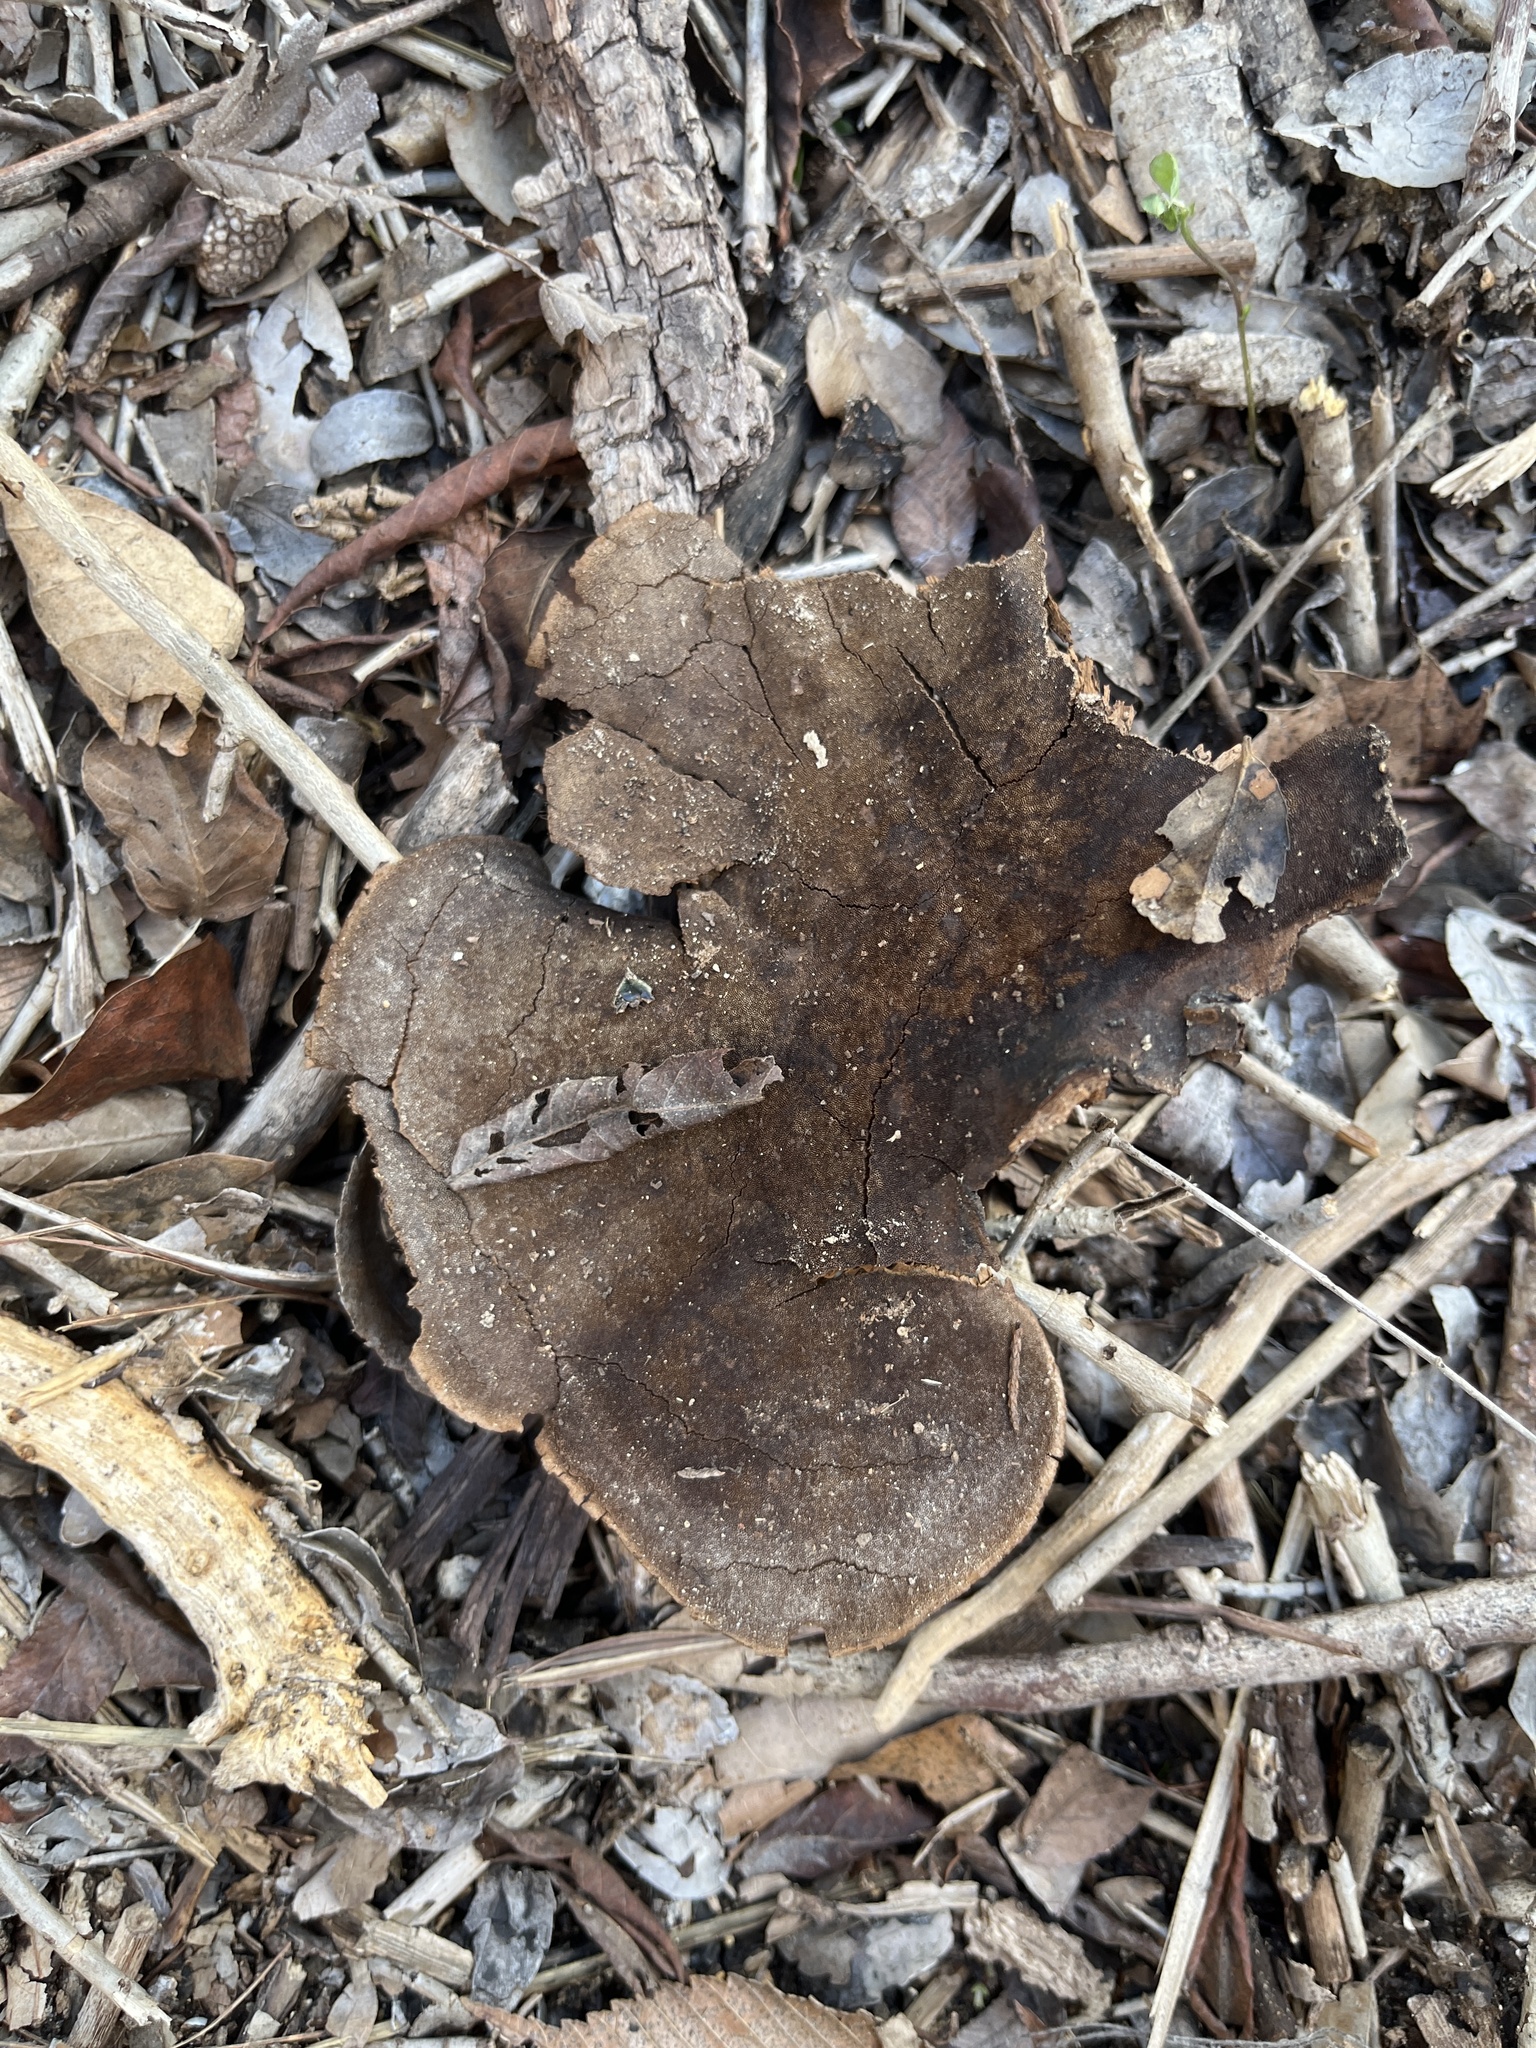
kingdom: Fungi
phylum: Basidiomycota
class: Agaricomycetes
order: Polyporales
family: Cerrenaceae
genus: Cerrena
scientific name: Cerrena hydnoides
